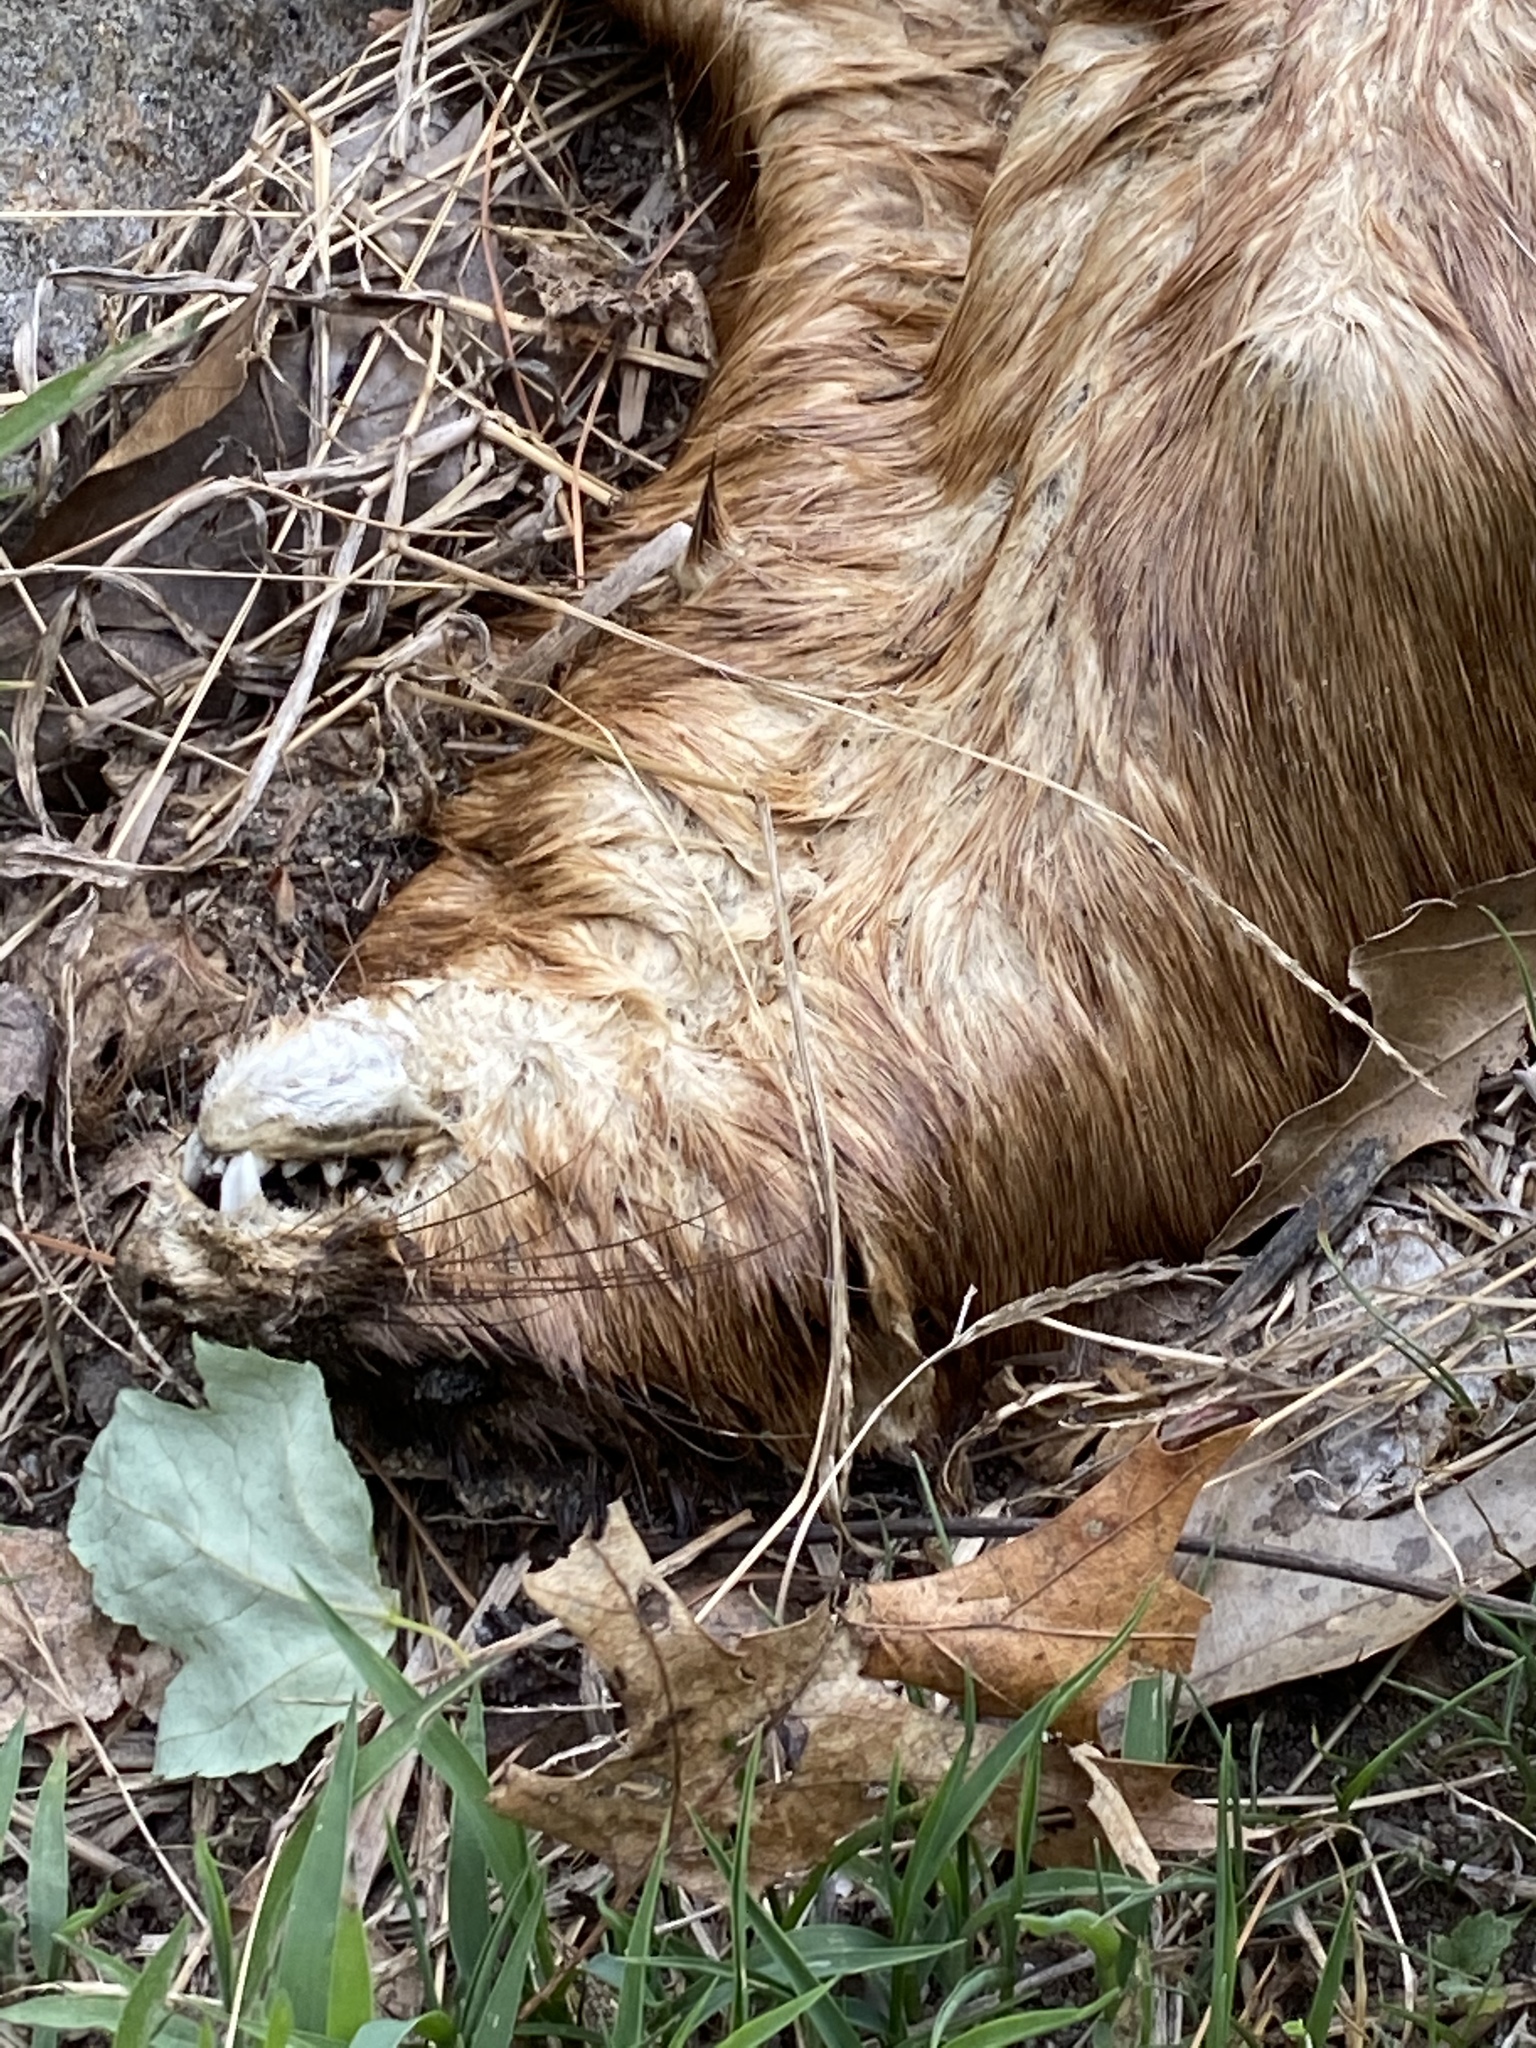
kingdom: Animalia
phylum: Chordata
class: Mammalia
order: Carnivora
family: Mustelidae
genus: Mustela
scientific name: Mustela
